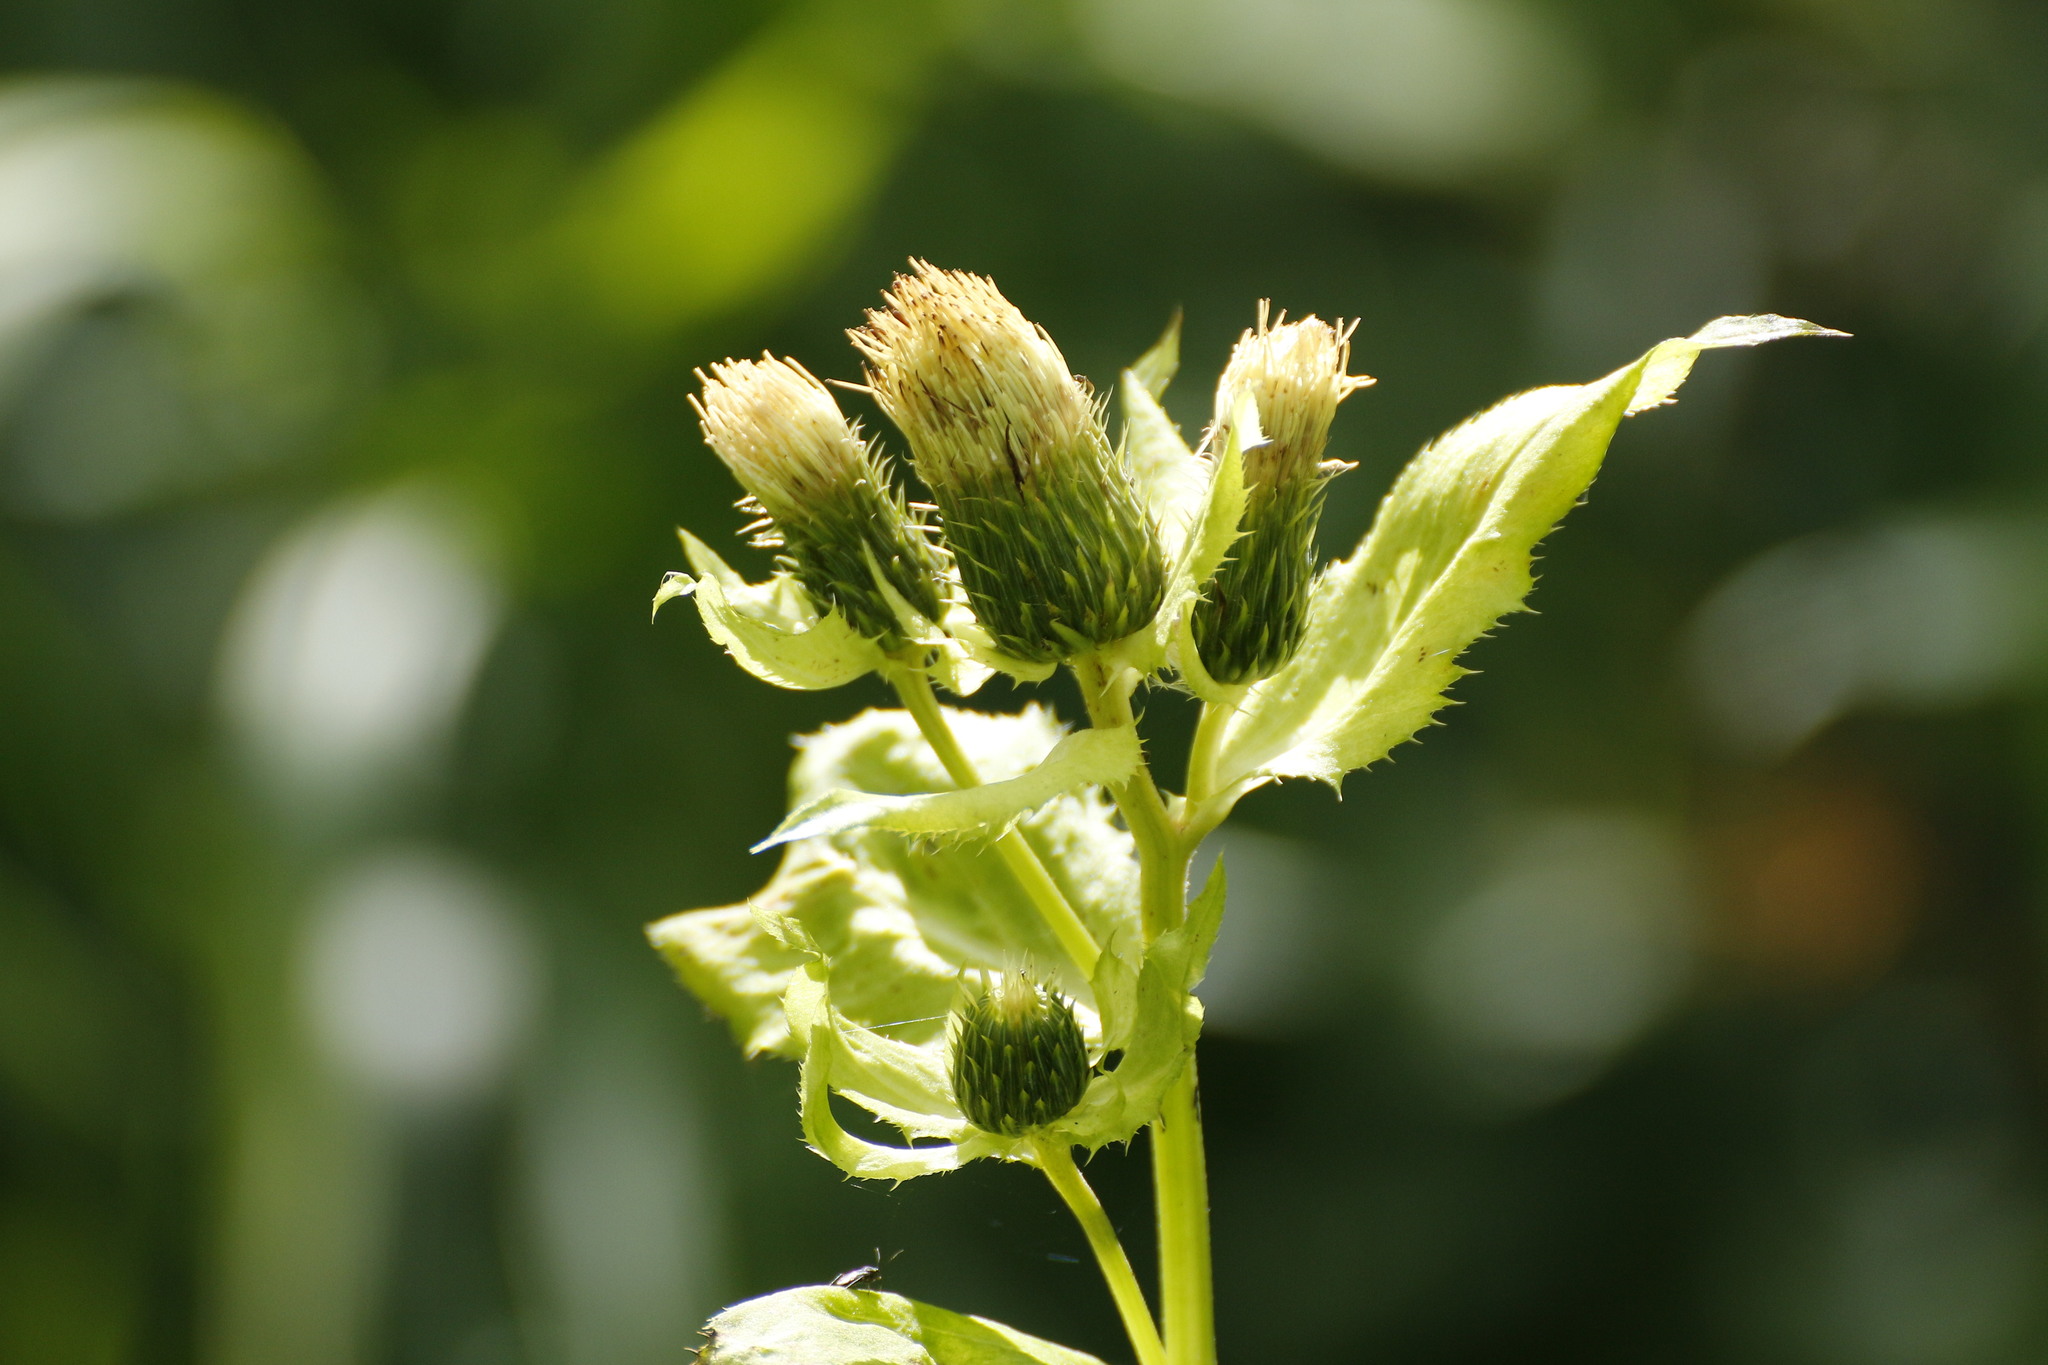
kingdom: Plantae
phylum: Tracheophyta
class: Magnoliopsida
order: Asterales
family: Asteraceae
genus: Cirsium
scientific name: Cirsium oleraceum
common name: Cabbage thistle
